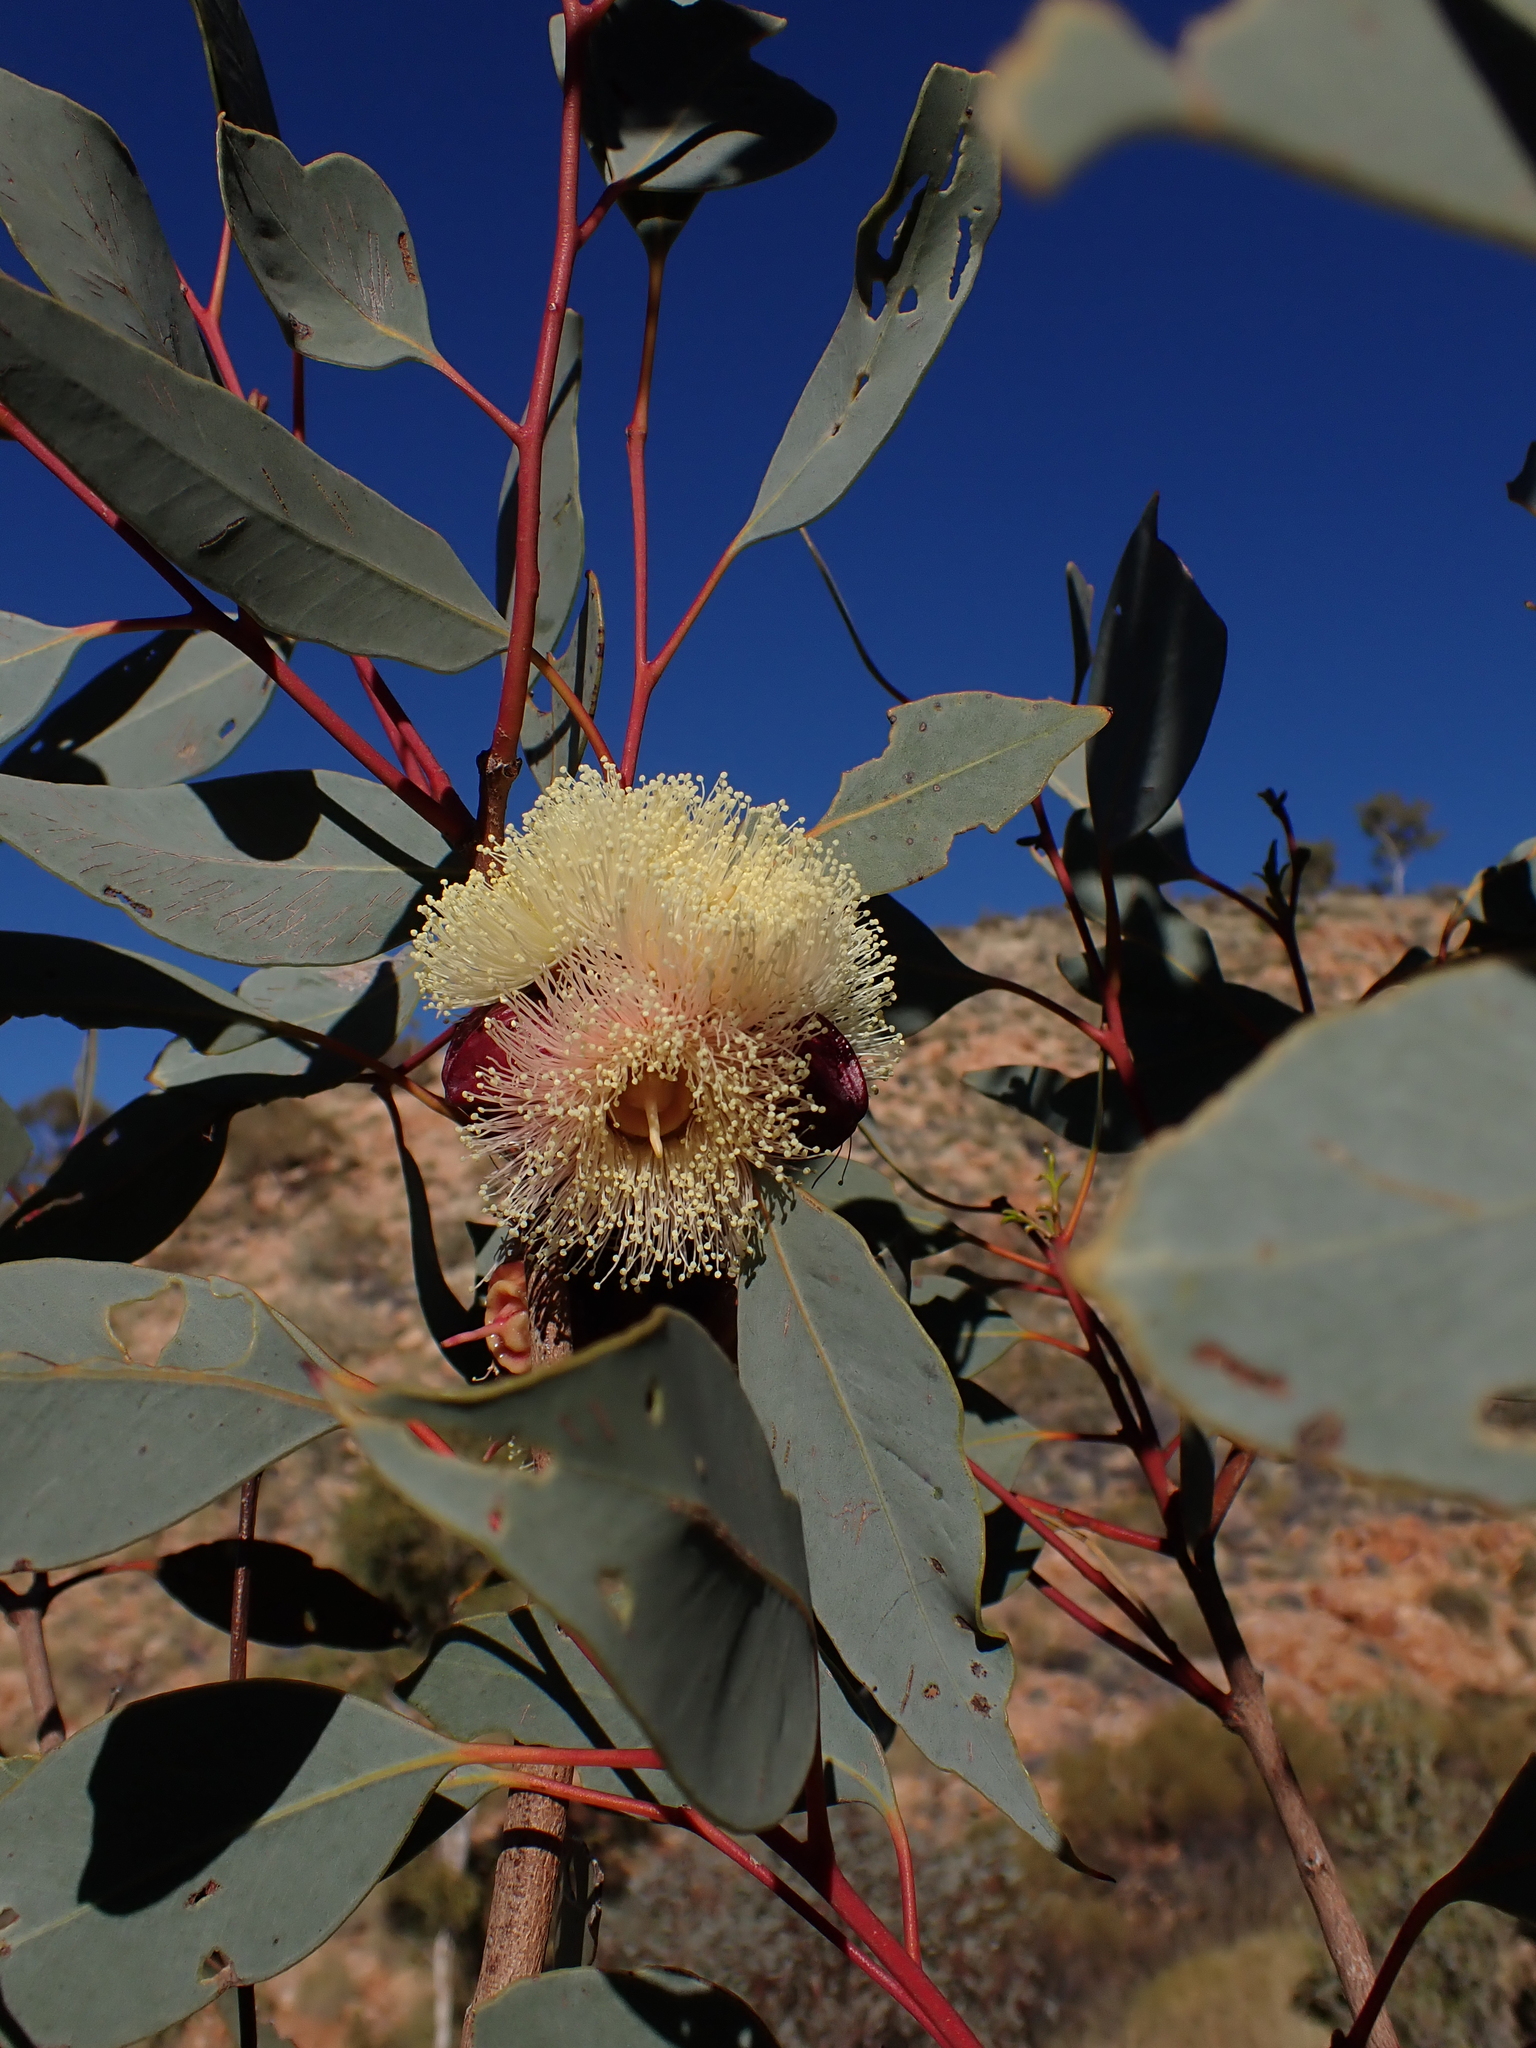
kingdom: Plantae
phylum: Tracheophyta
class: Magnoliopsida
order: Myrtales
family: Myrtaceae
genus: Eucalyptus
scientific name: Eucalyptus sessilis
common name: Mcdonnell range mallee
